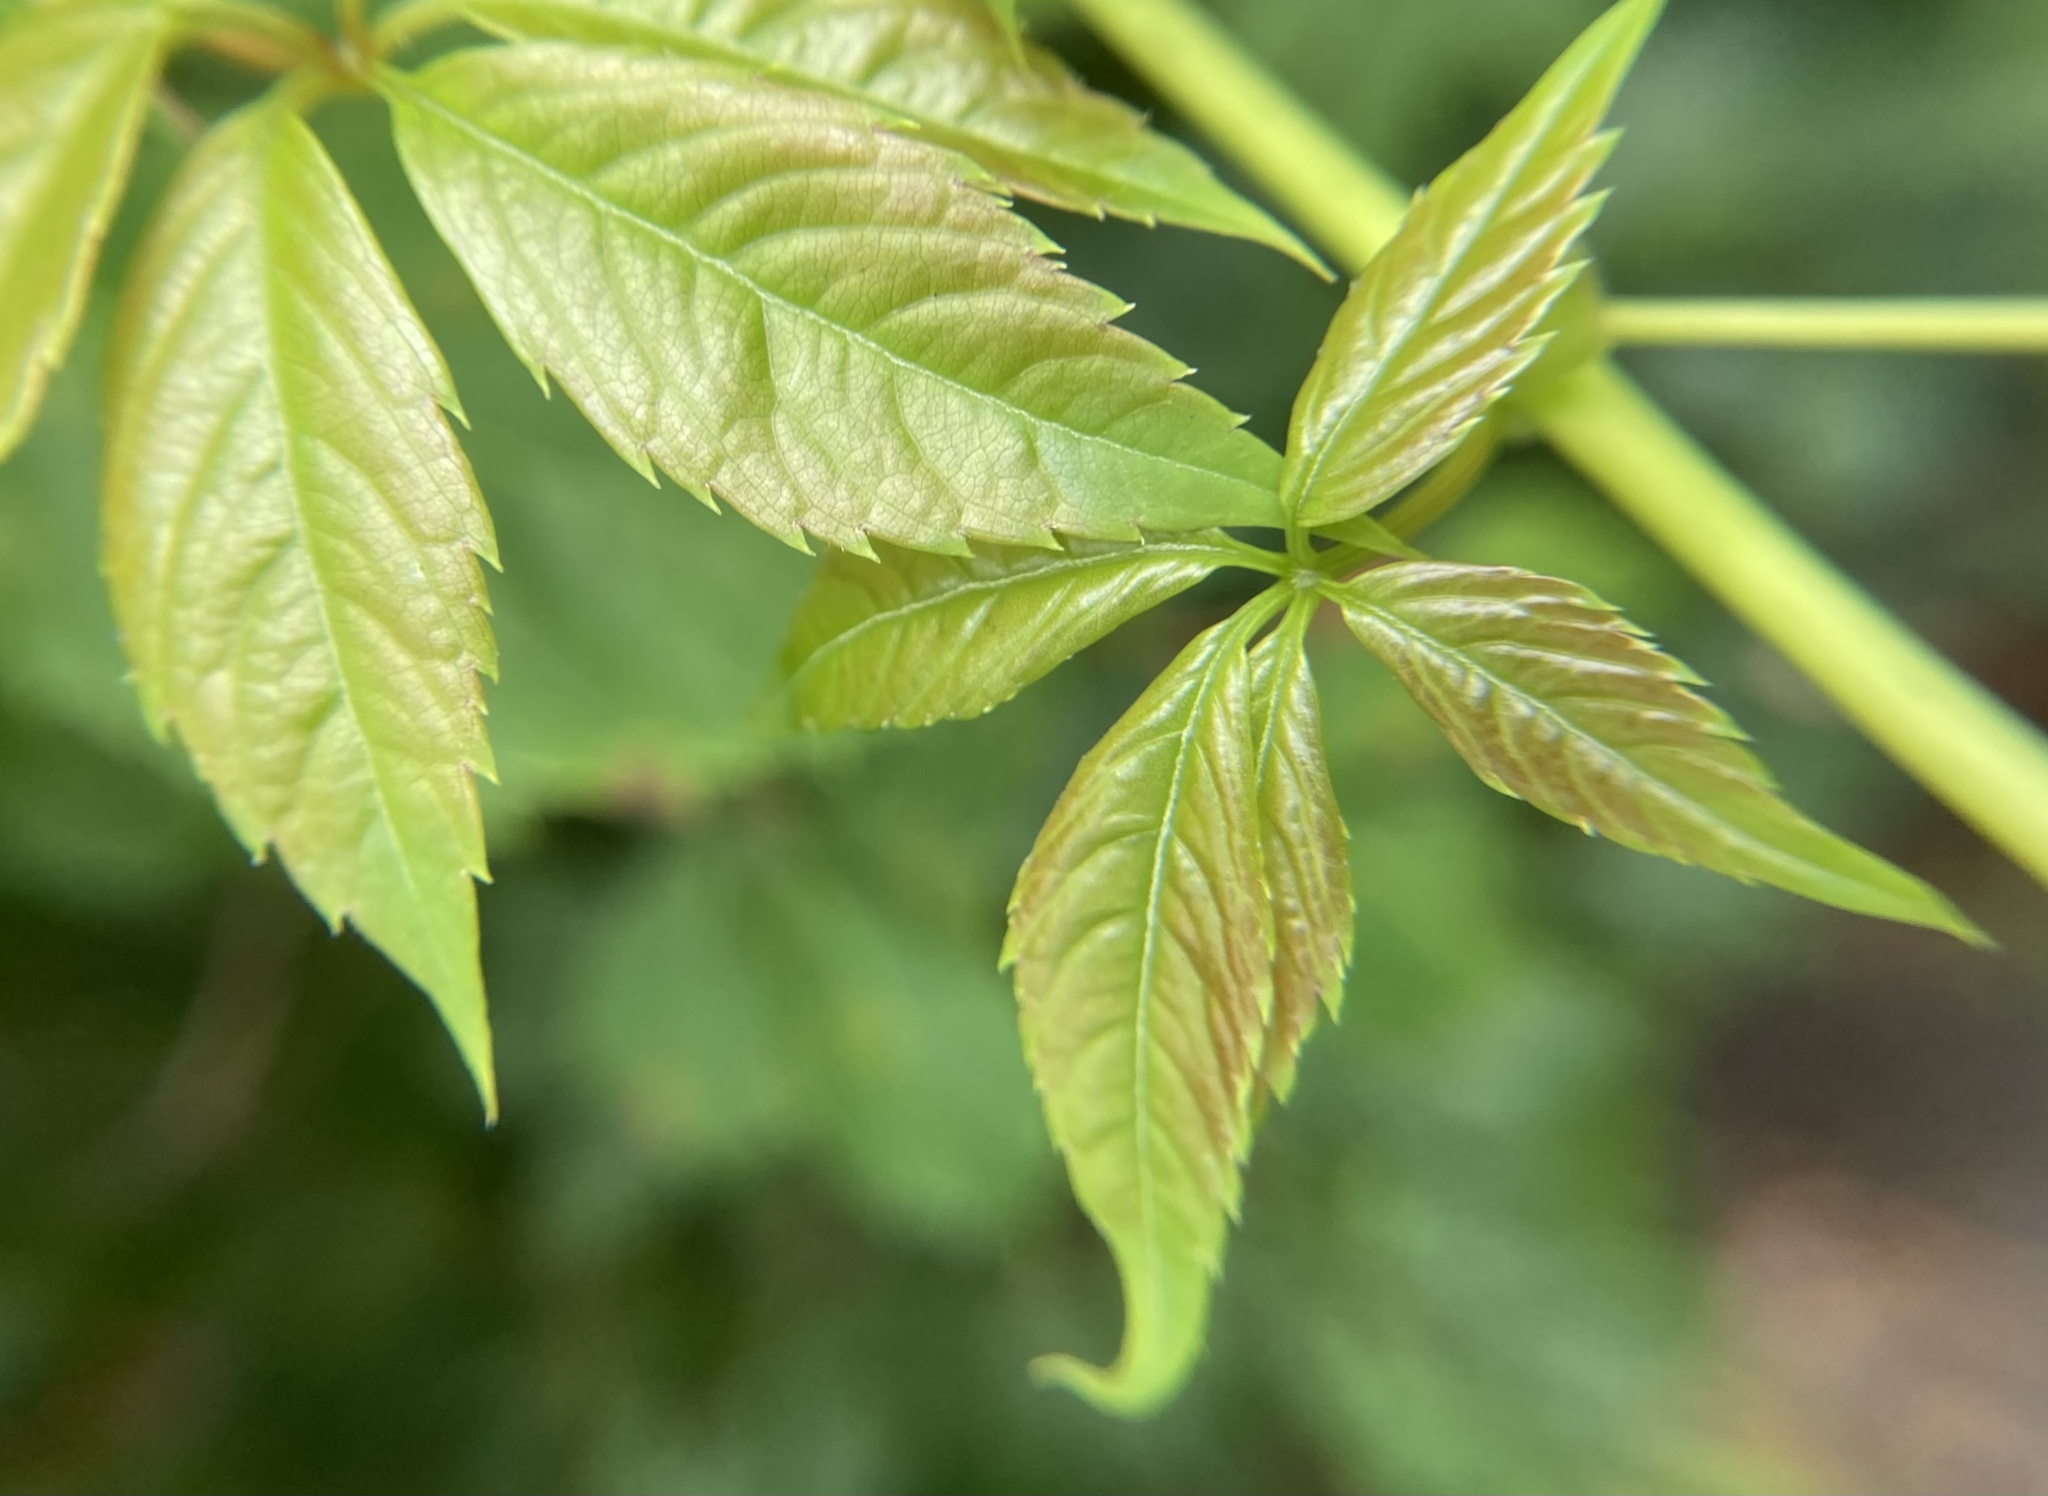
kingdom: Plantae
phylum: Tracheophyta
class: Magnoliopsida
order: Vitales
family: Vitaceae
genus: Parthenocissus
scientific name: Parthenocissus quinquefolia
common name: Virginia-creeper
